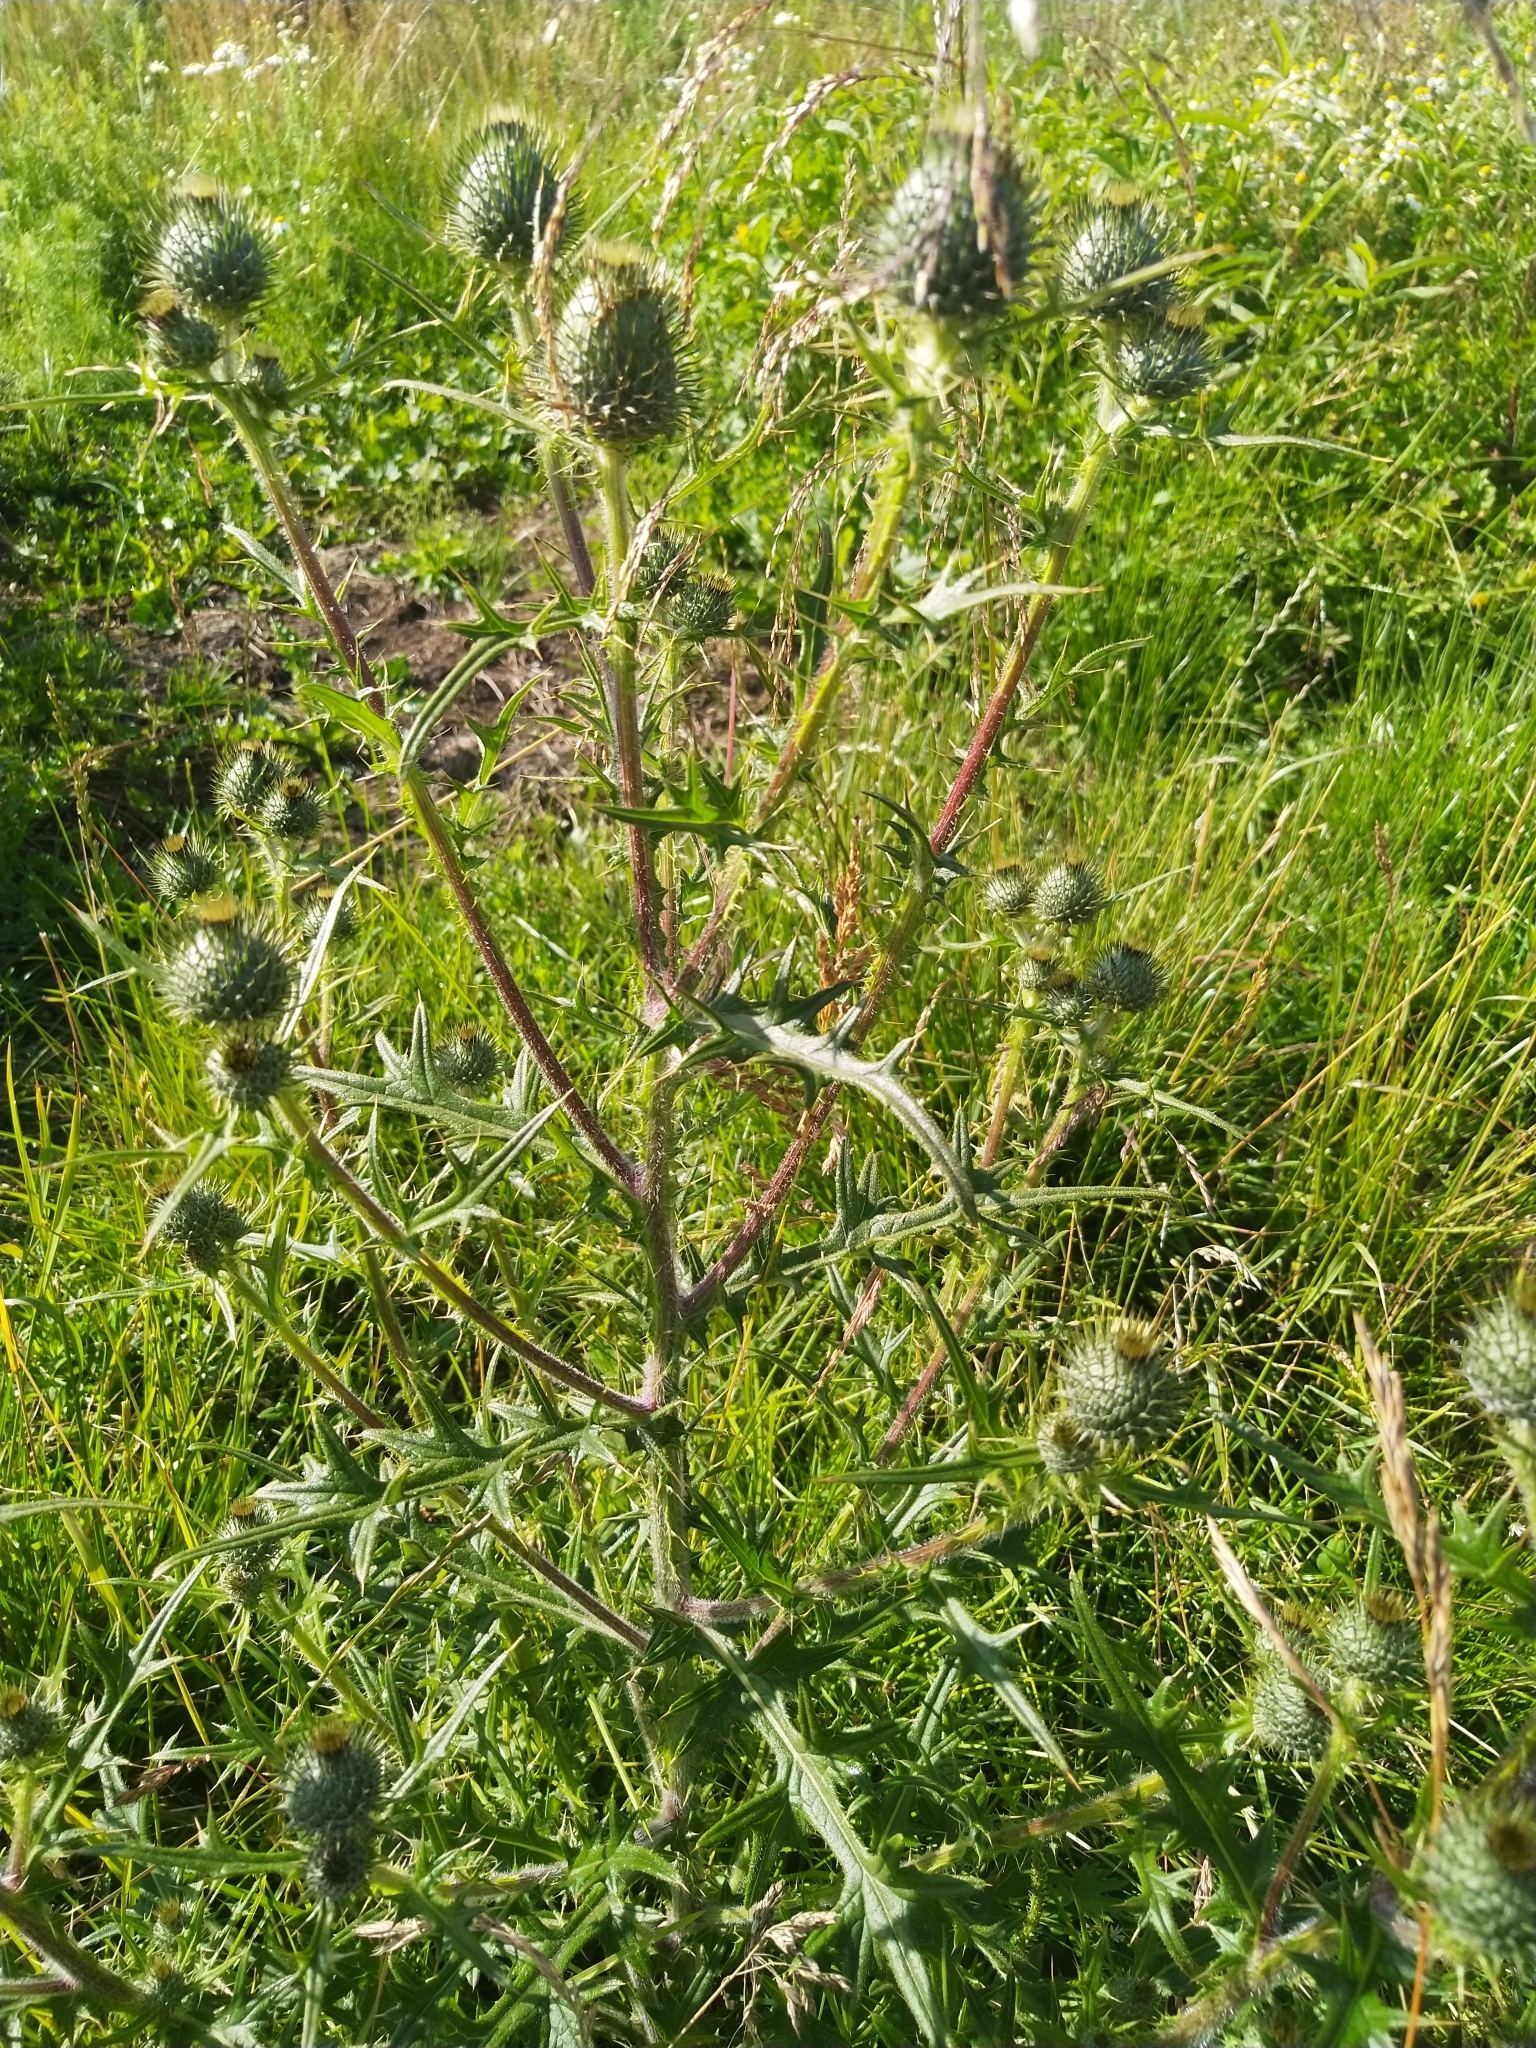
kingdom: Plantae
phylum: Tracheophyta
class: Magnoliopsida
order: Asterales
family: Asteraceae
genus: Cirsium
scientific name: Cirsium vulgare
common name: Bull thistle
